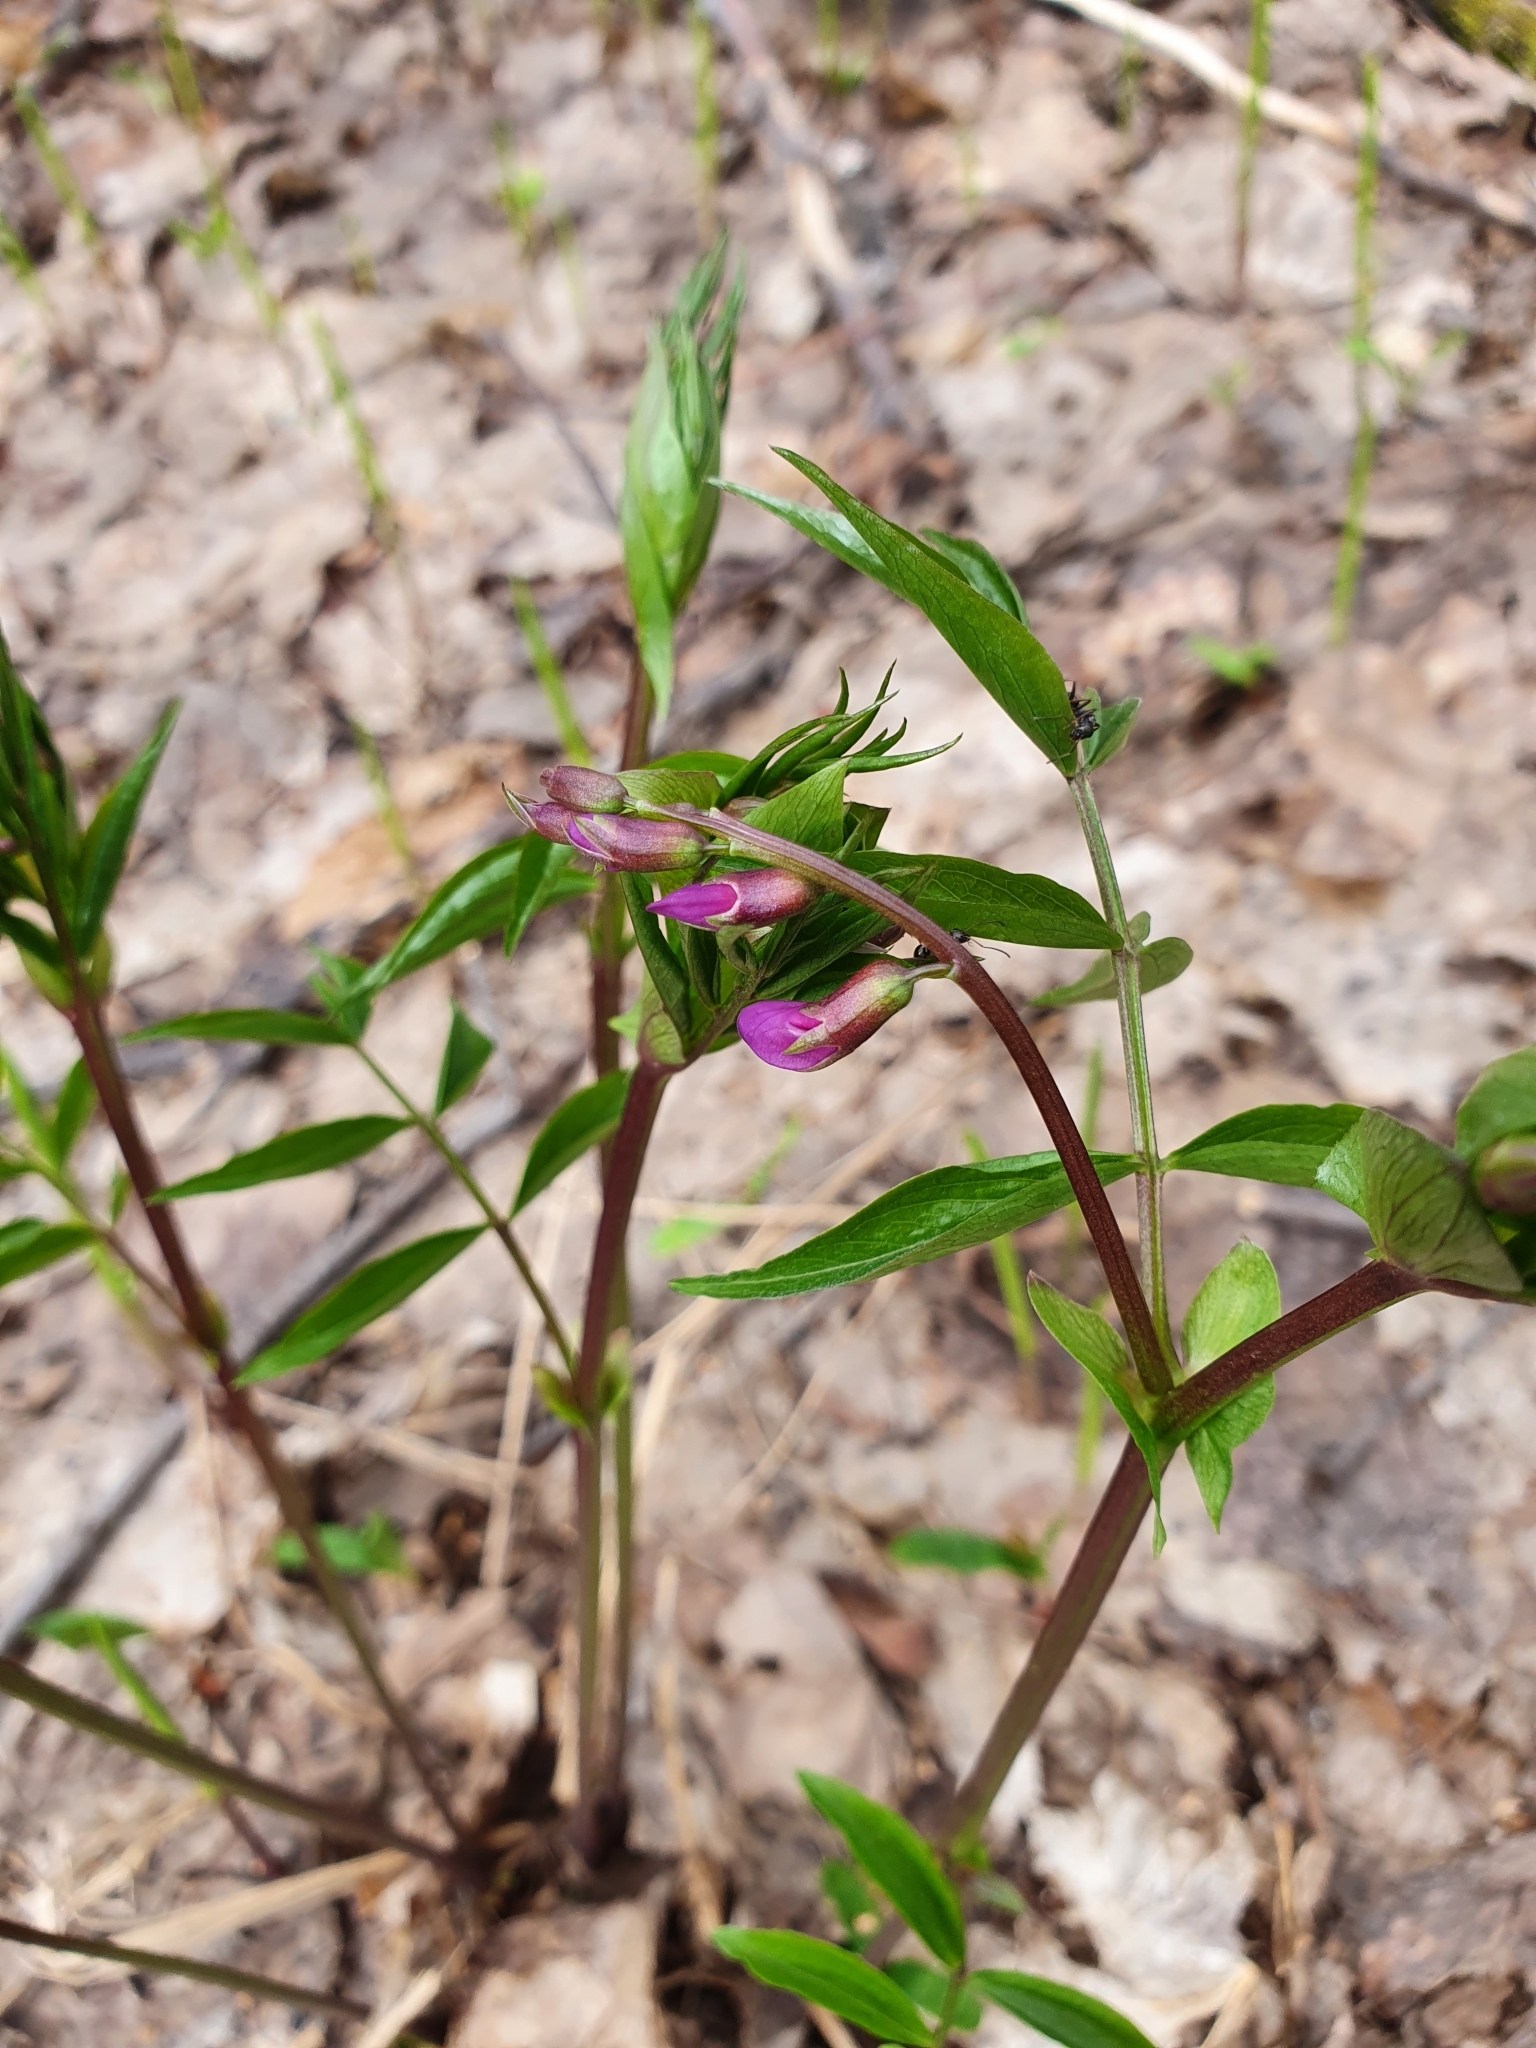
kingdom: Plantae
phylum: Tracheophyta
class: Magnoliopsida
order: Fabales
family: Fabaceae
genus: Lathyrus
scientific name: Lathyrus vernus
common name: Spring pea
